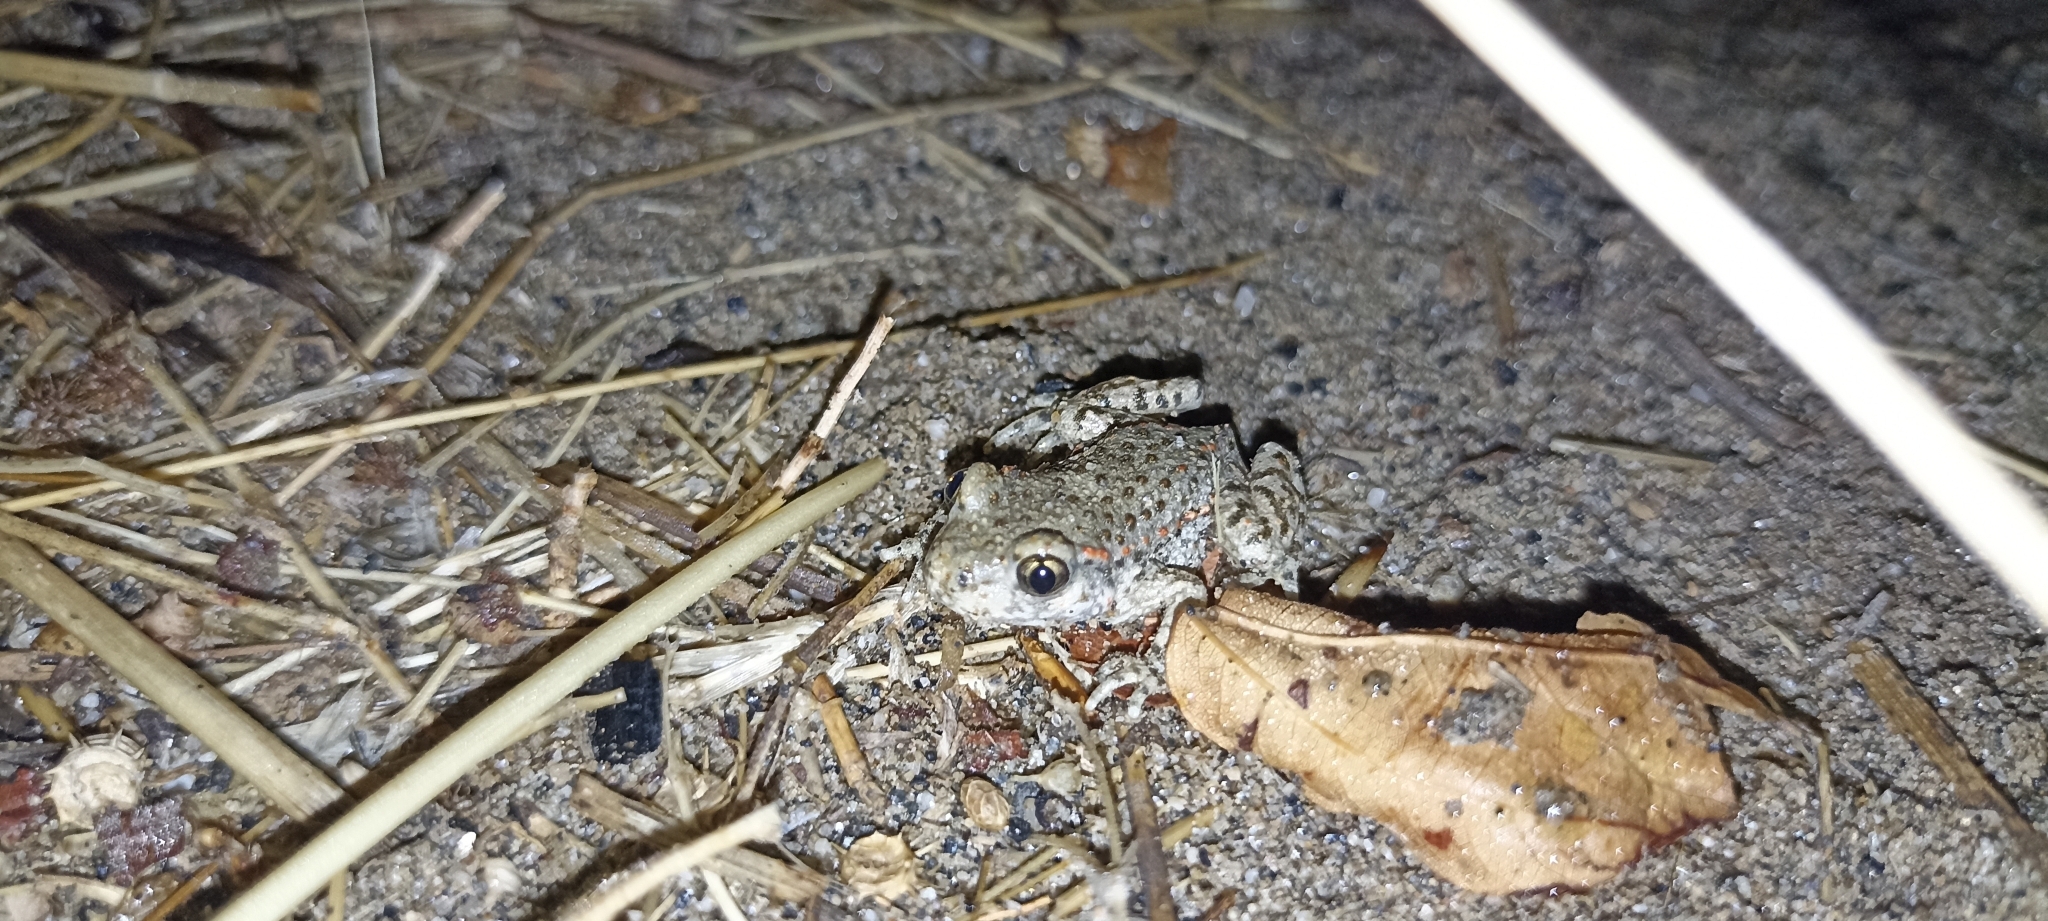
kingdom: Animalia
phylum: Chordata
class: Amphibia
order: Anura
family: Alytidae
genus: Alytes
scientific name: Alytes obstetricans
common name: Midwife toad
